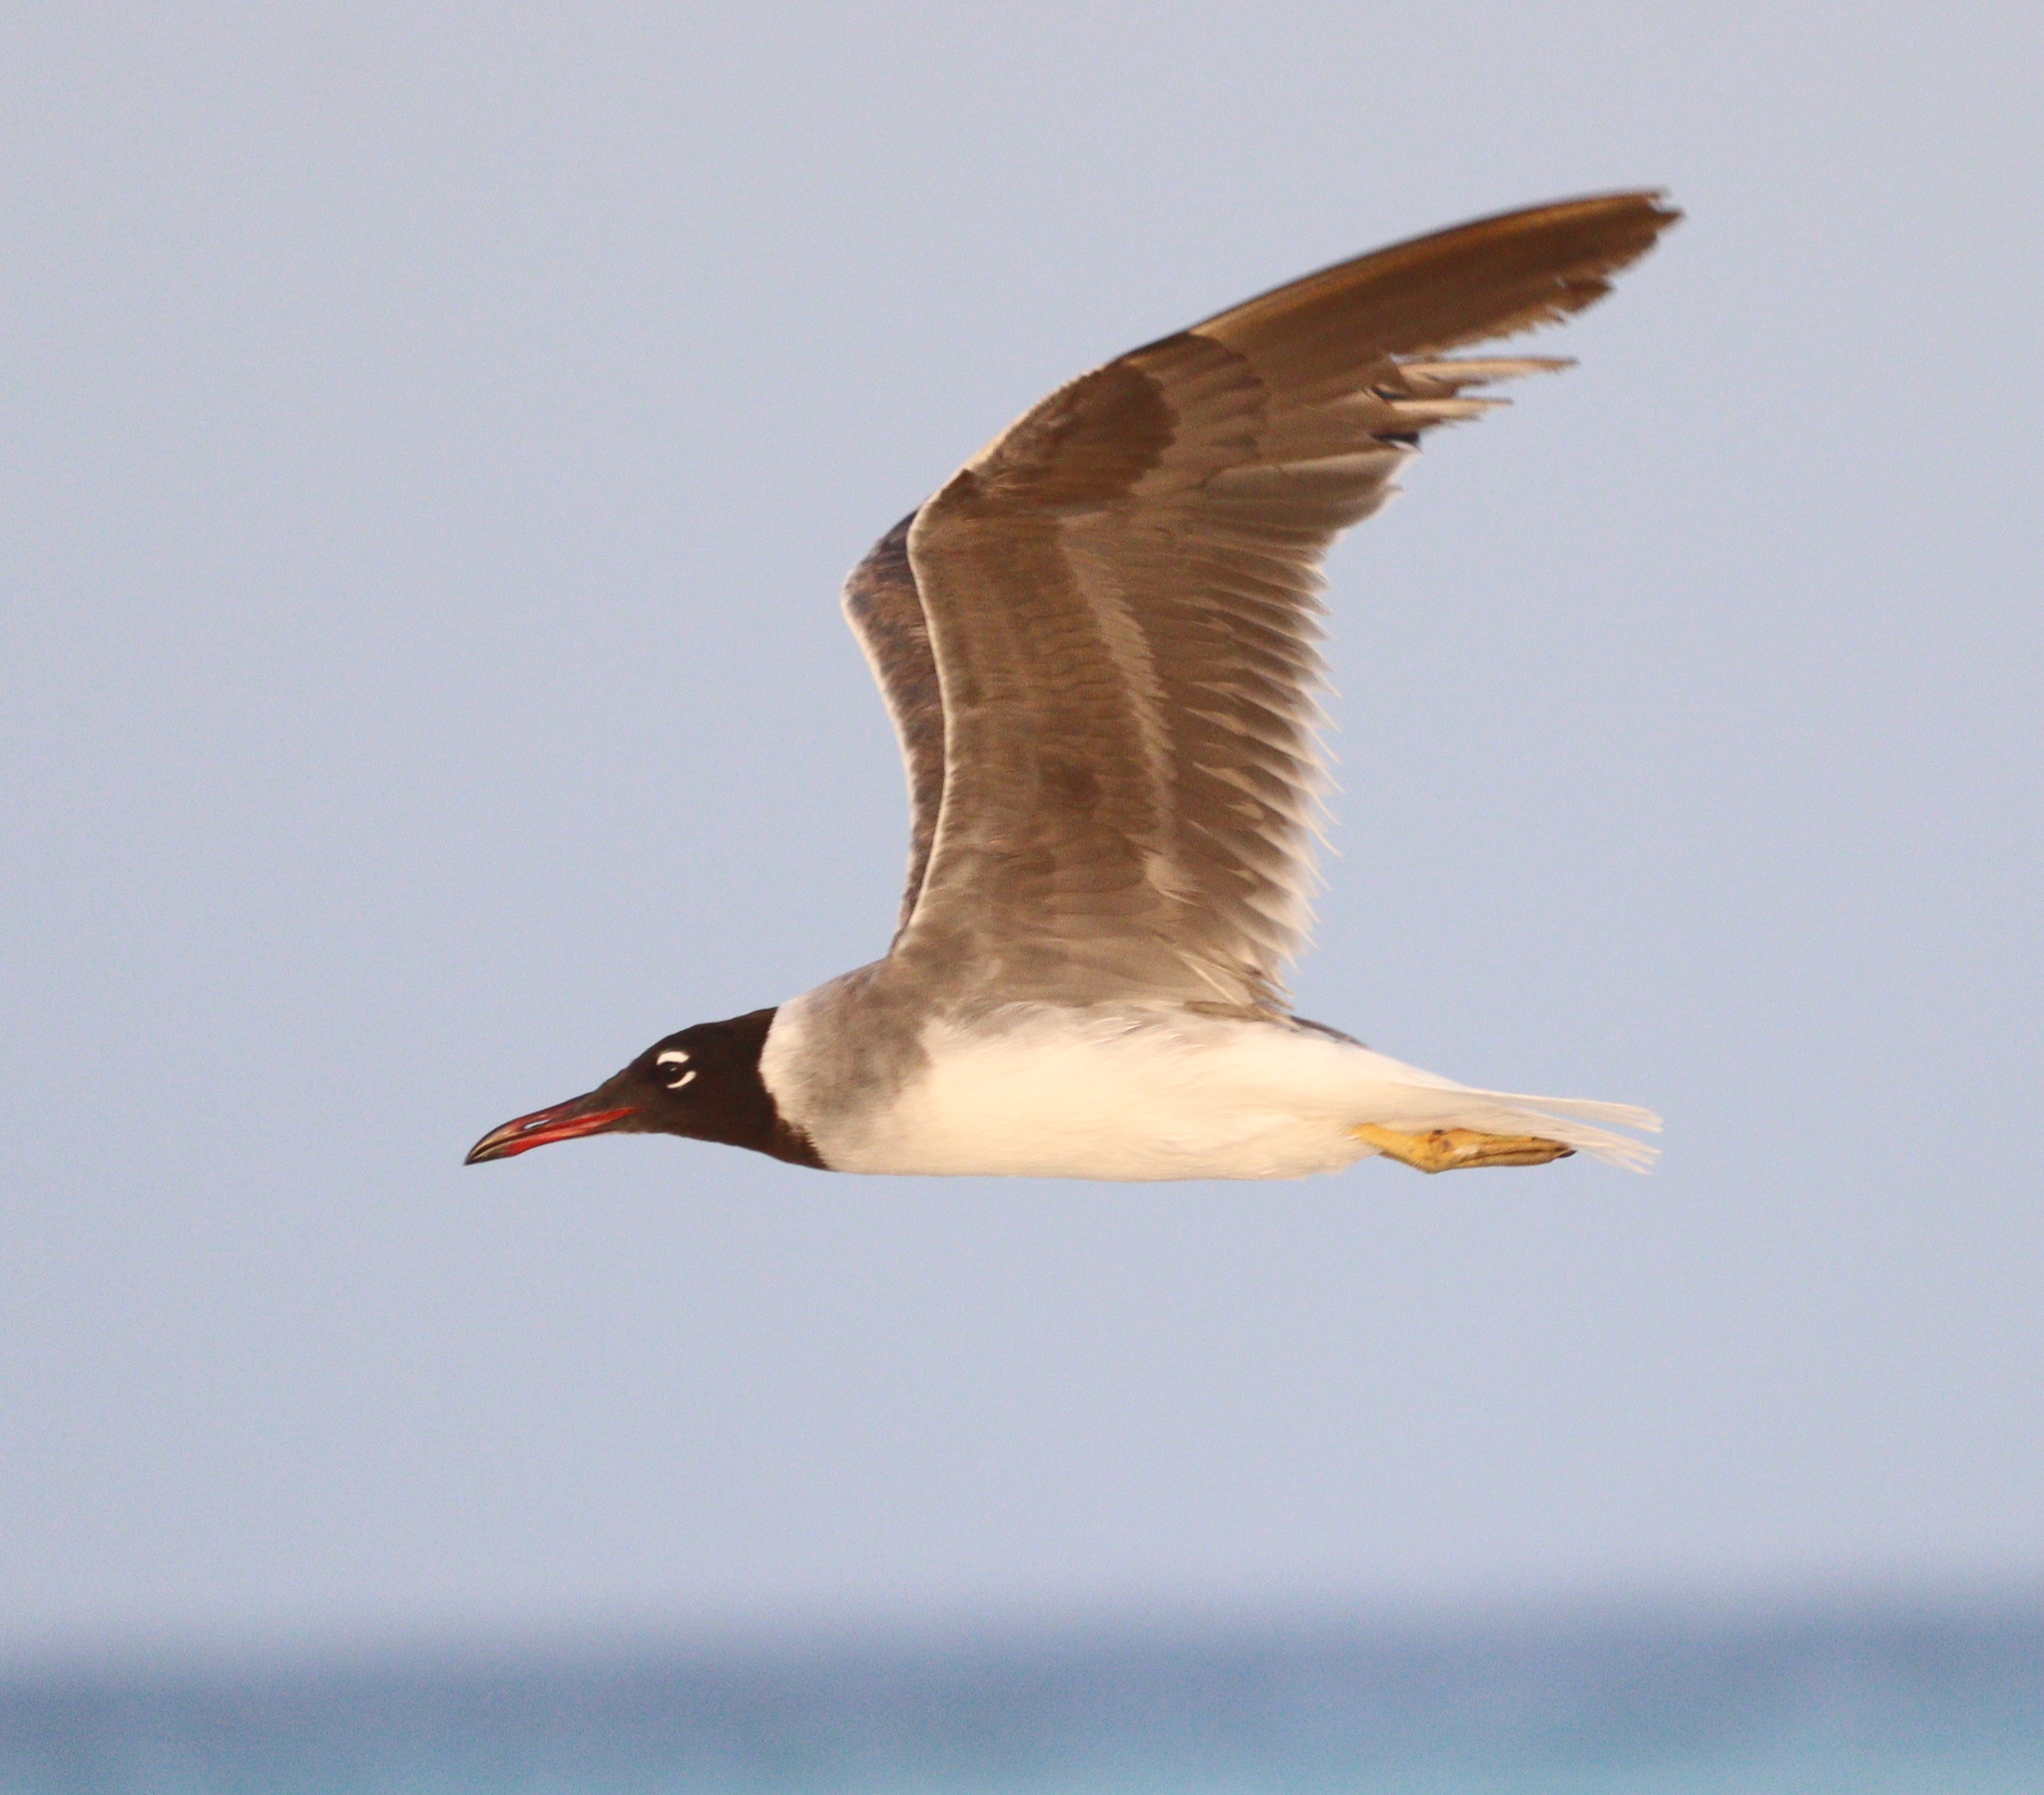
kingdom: Animalia
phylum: Chordata
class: Aves
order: Charadriiformes
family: Laridae
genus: Ichthyaetus
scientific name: Ichthyaetus leucophthalmus
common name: White-eyed gull
